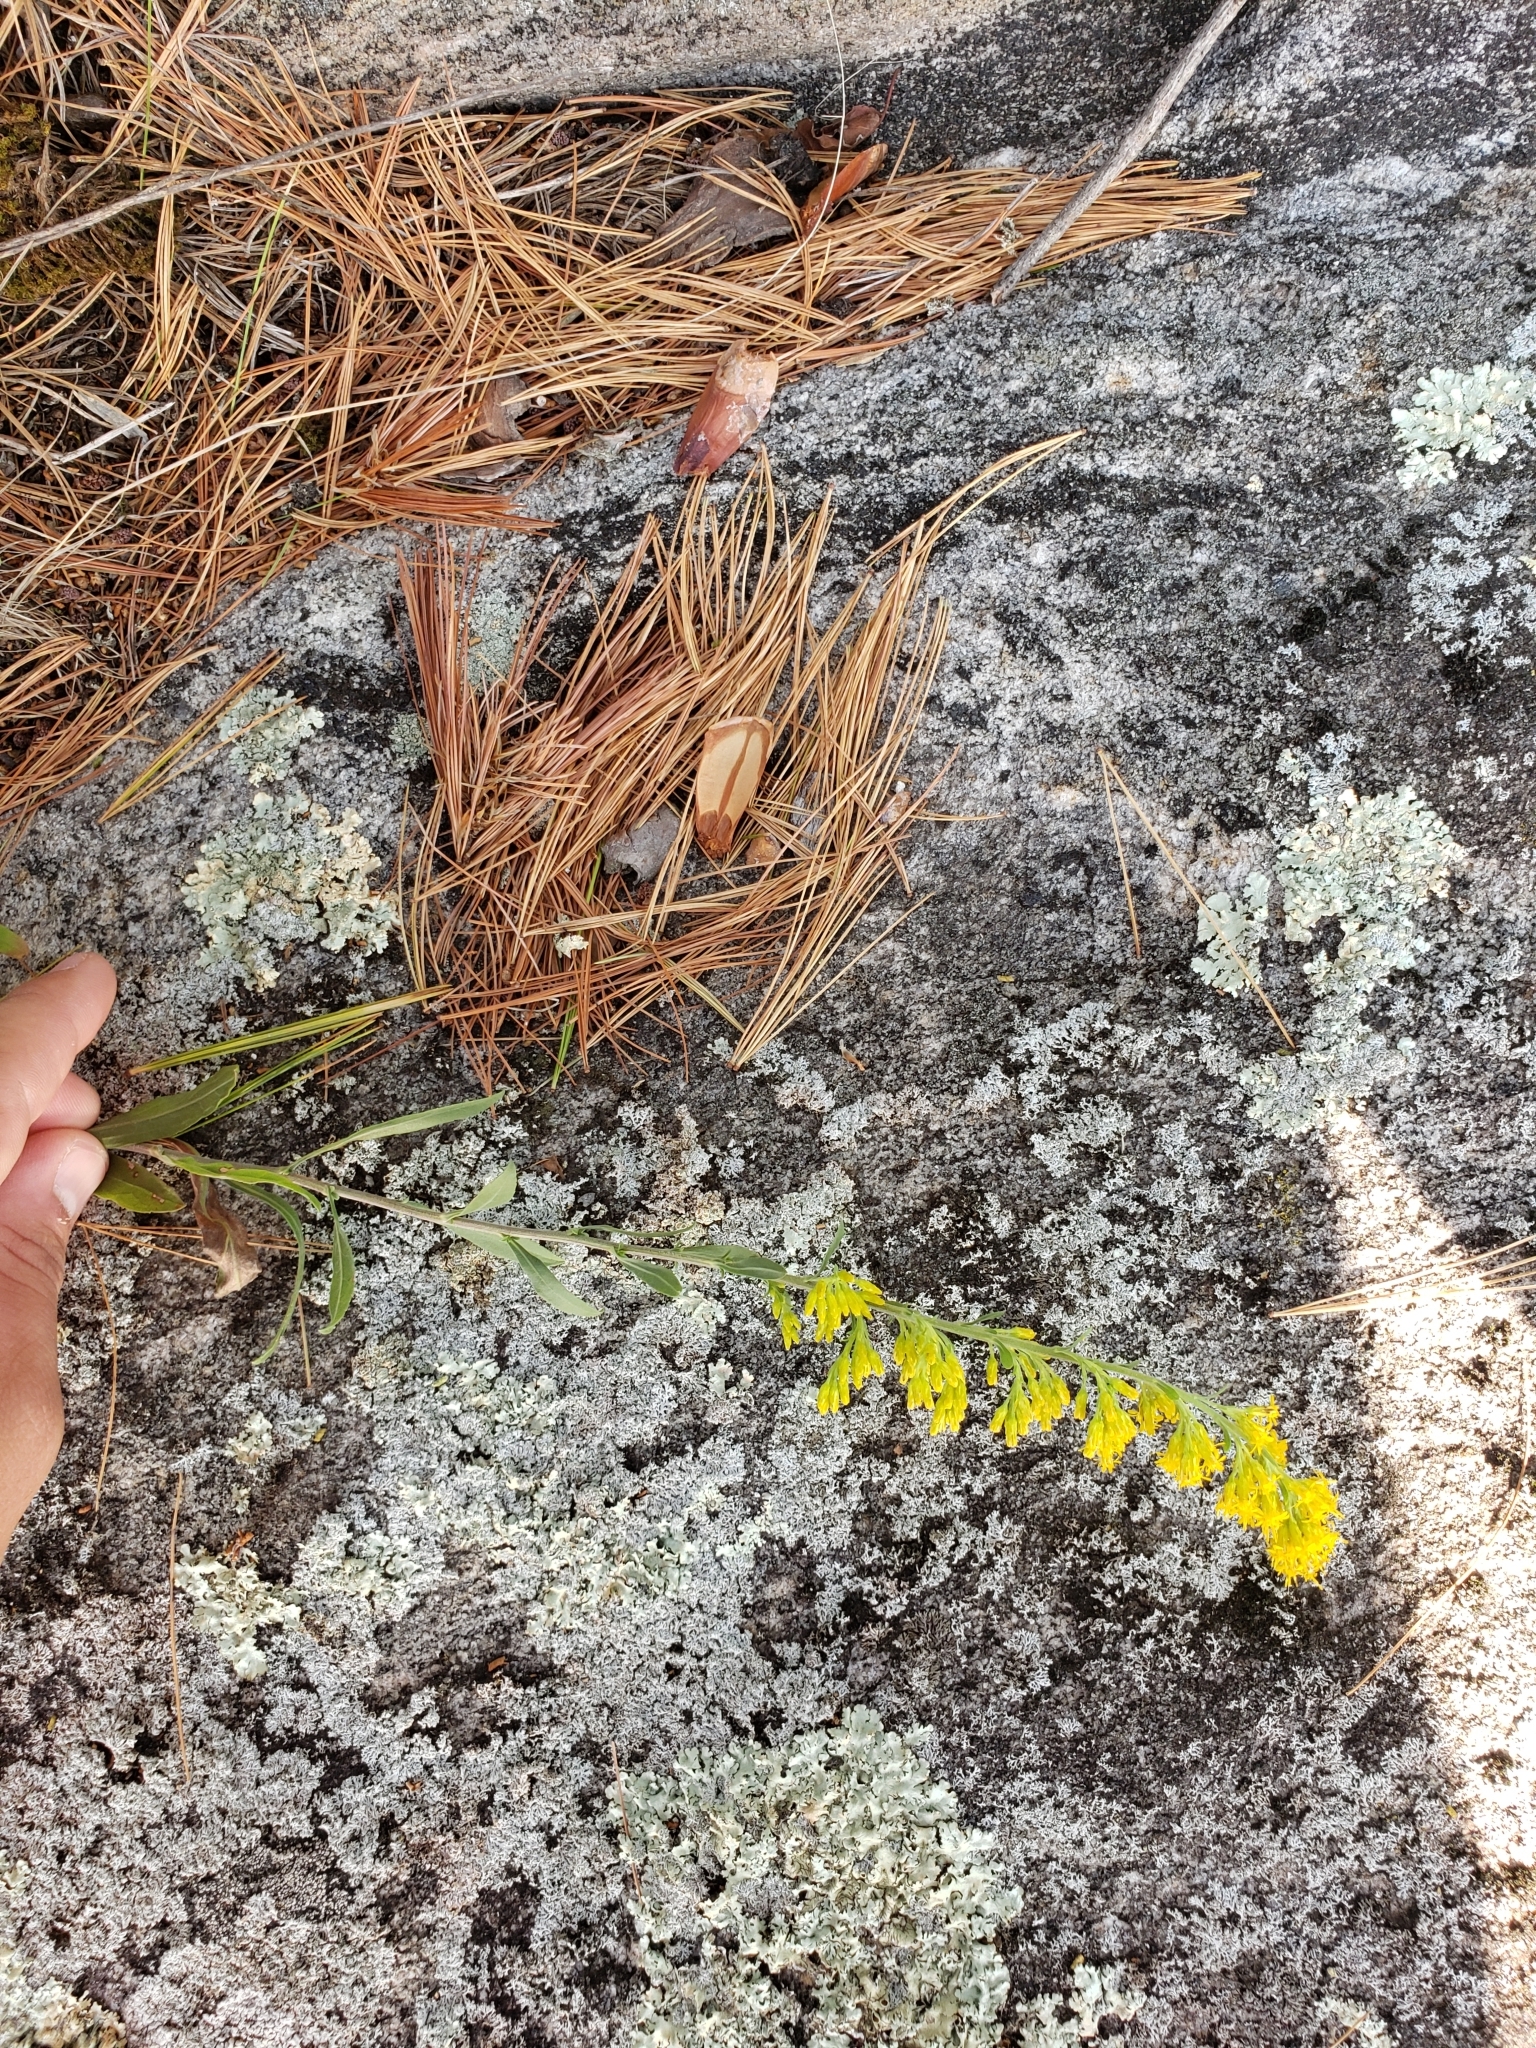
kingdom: Plantae
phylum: Tracheophyta
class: Magnoliopsida
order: Asterales
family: Asteraceae
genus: Solidago
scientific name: Solidago nemoralis
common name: Grey goldenrod
